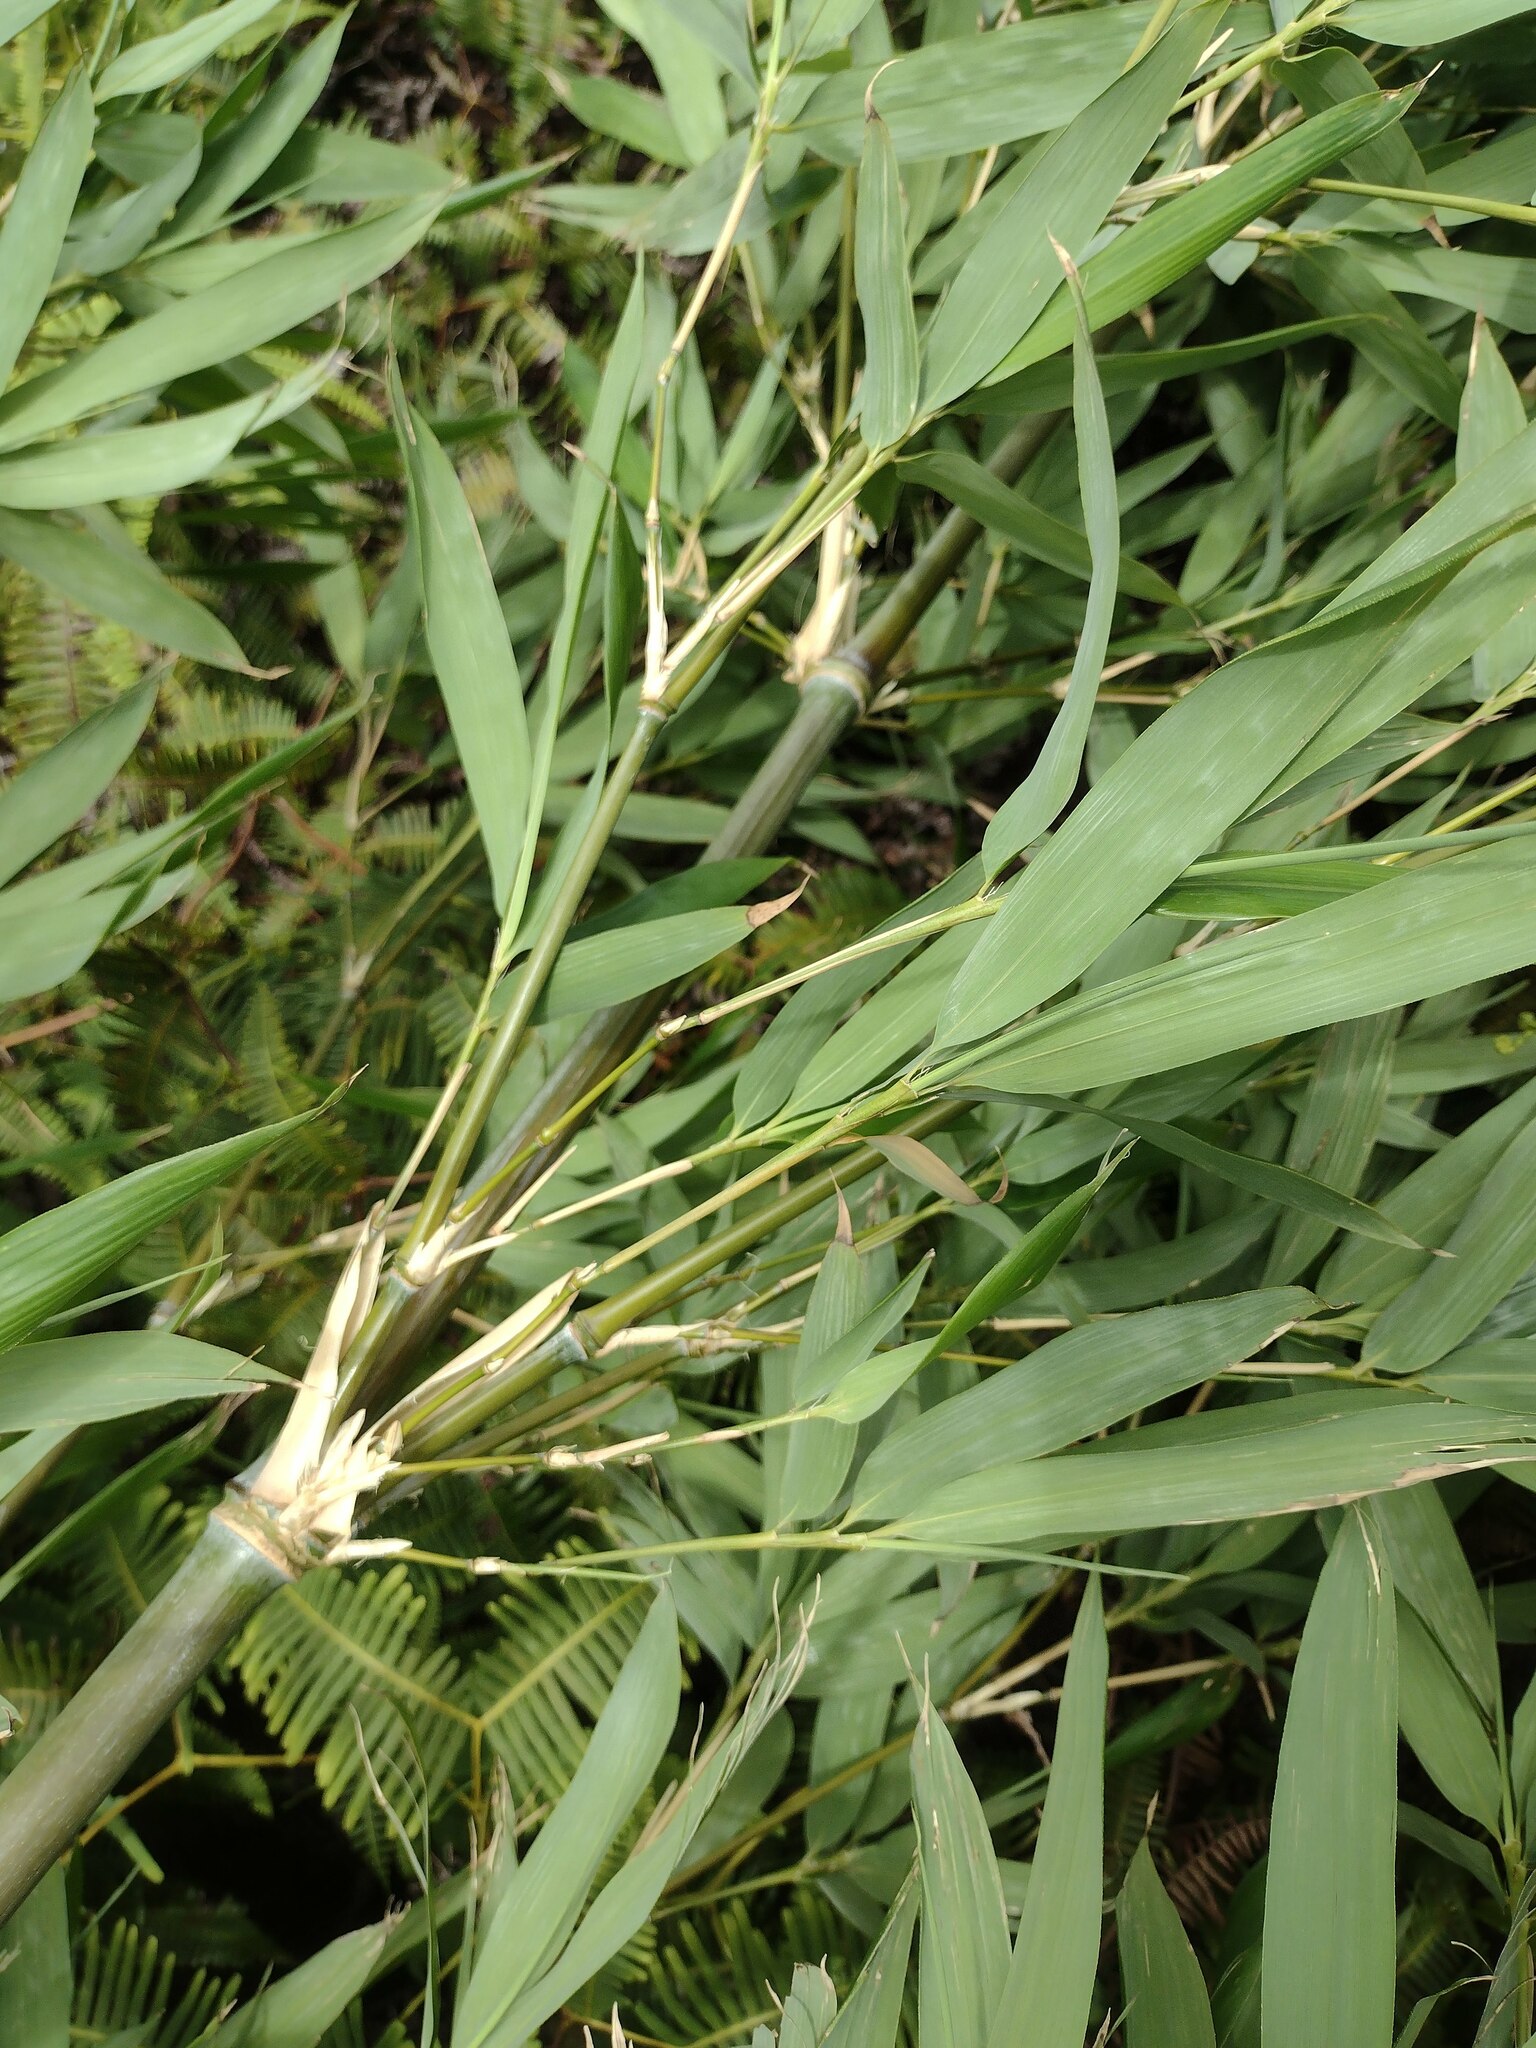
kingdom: Plantae
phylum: Tracheophyta
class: Liliopsida
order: Poales
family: Poaceae
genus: Phyllostachys
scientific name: Phyllostachys nigra
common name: Black bamboo
